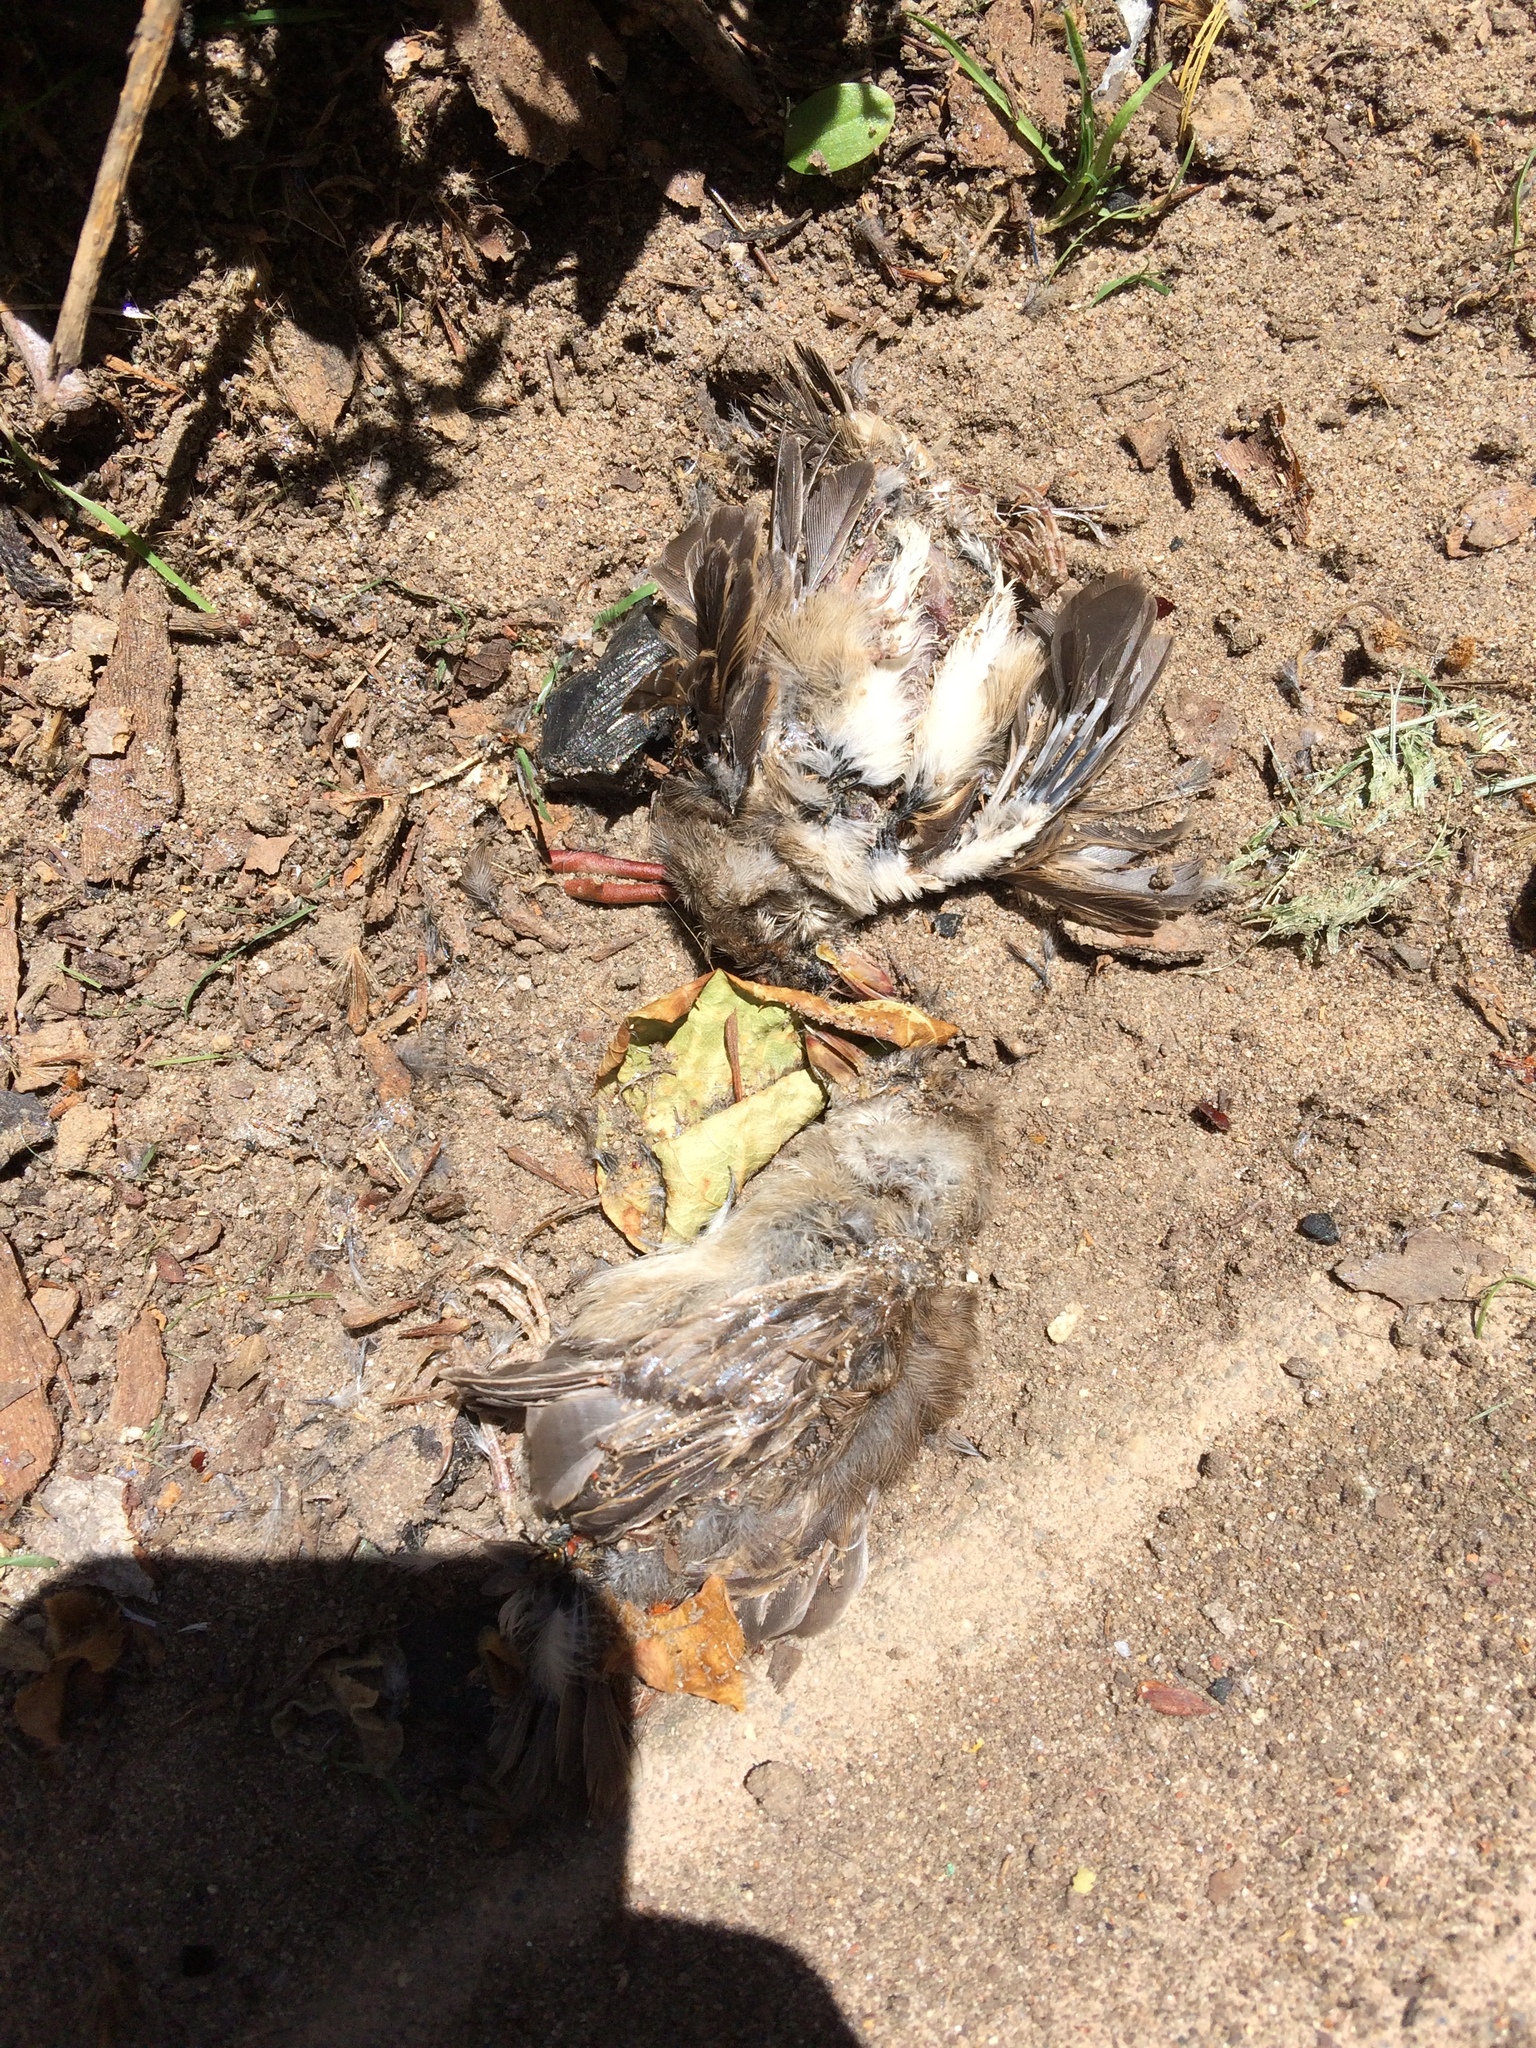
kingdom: Animalia
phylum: Chordata
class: Aves
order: Passeriformes
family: Passeridae
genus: Passer
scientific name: Passer domesticus
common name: House sparrow
